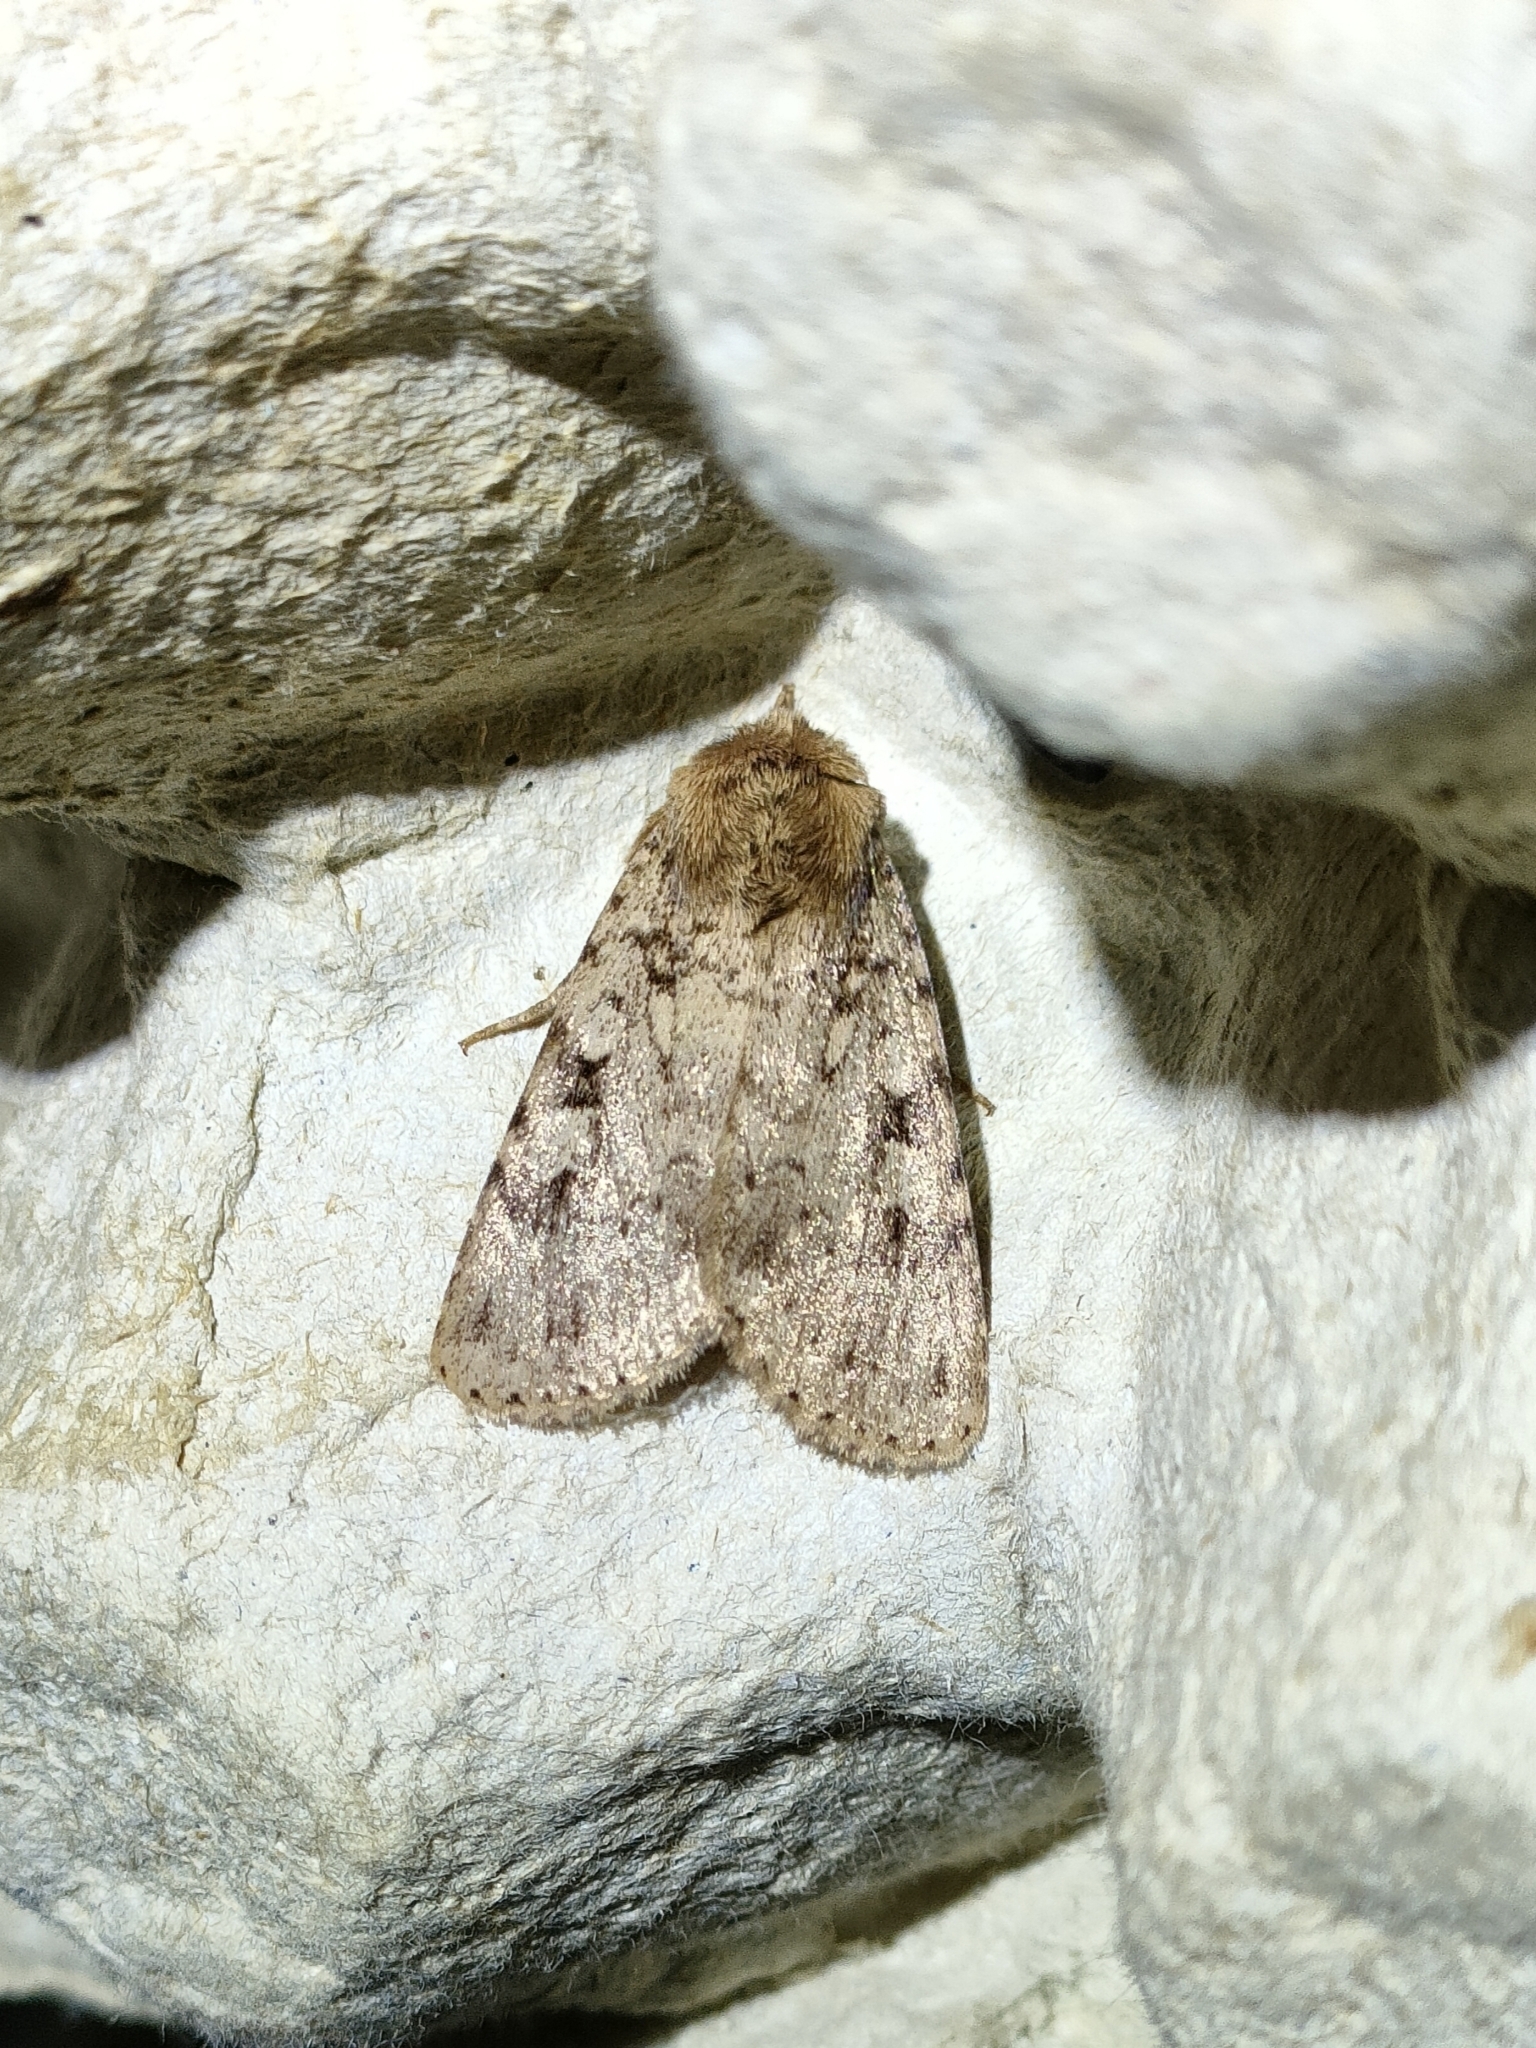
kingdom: Animalia
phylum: Arthropoda
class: Insecta
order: Lepidoptera
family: Noctuidae
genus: Amphipyra
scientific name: Amphipyra effusa
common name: Landguard ochre
